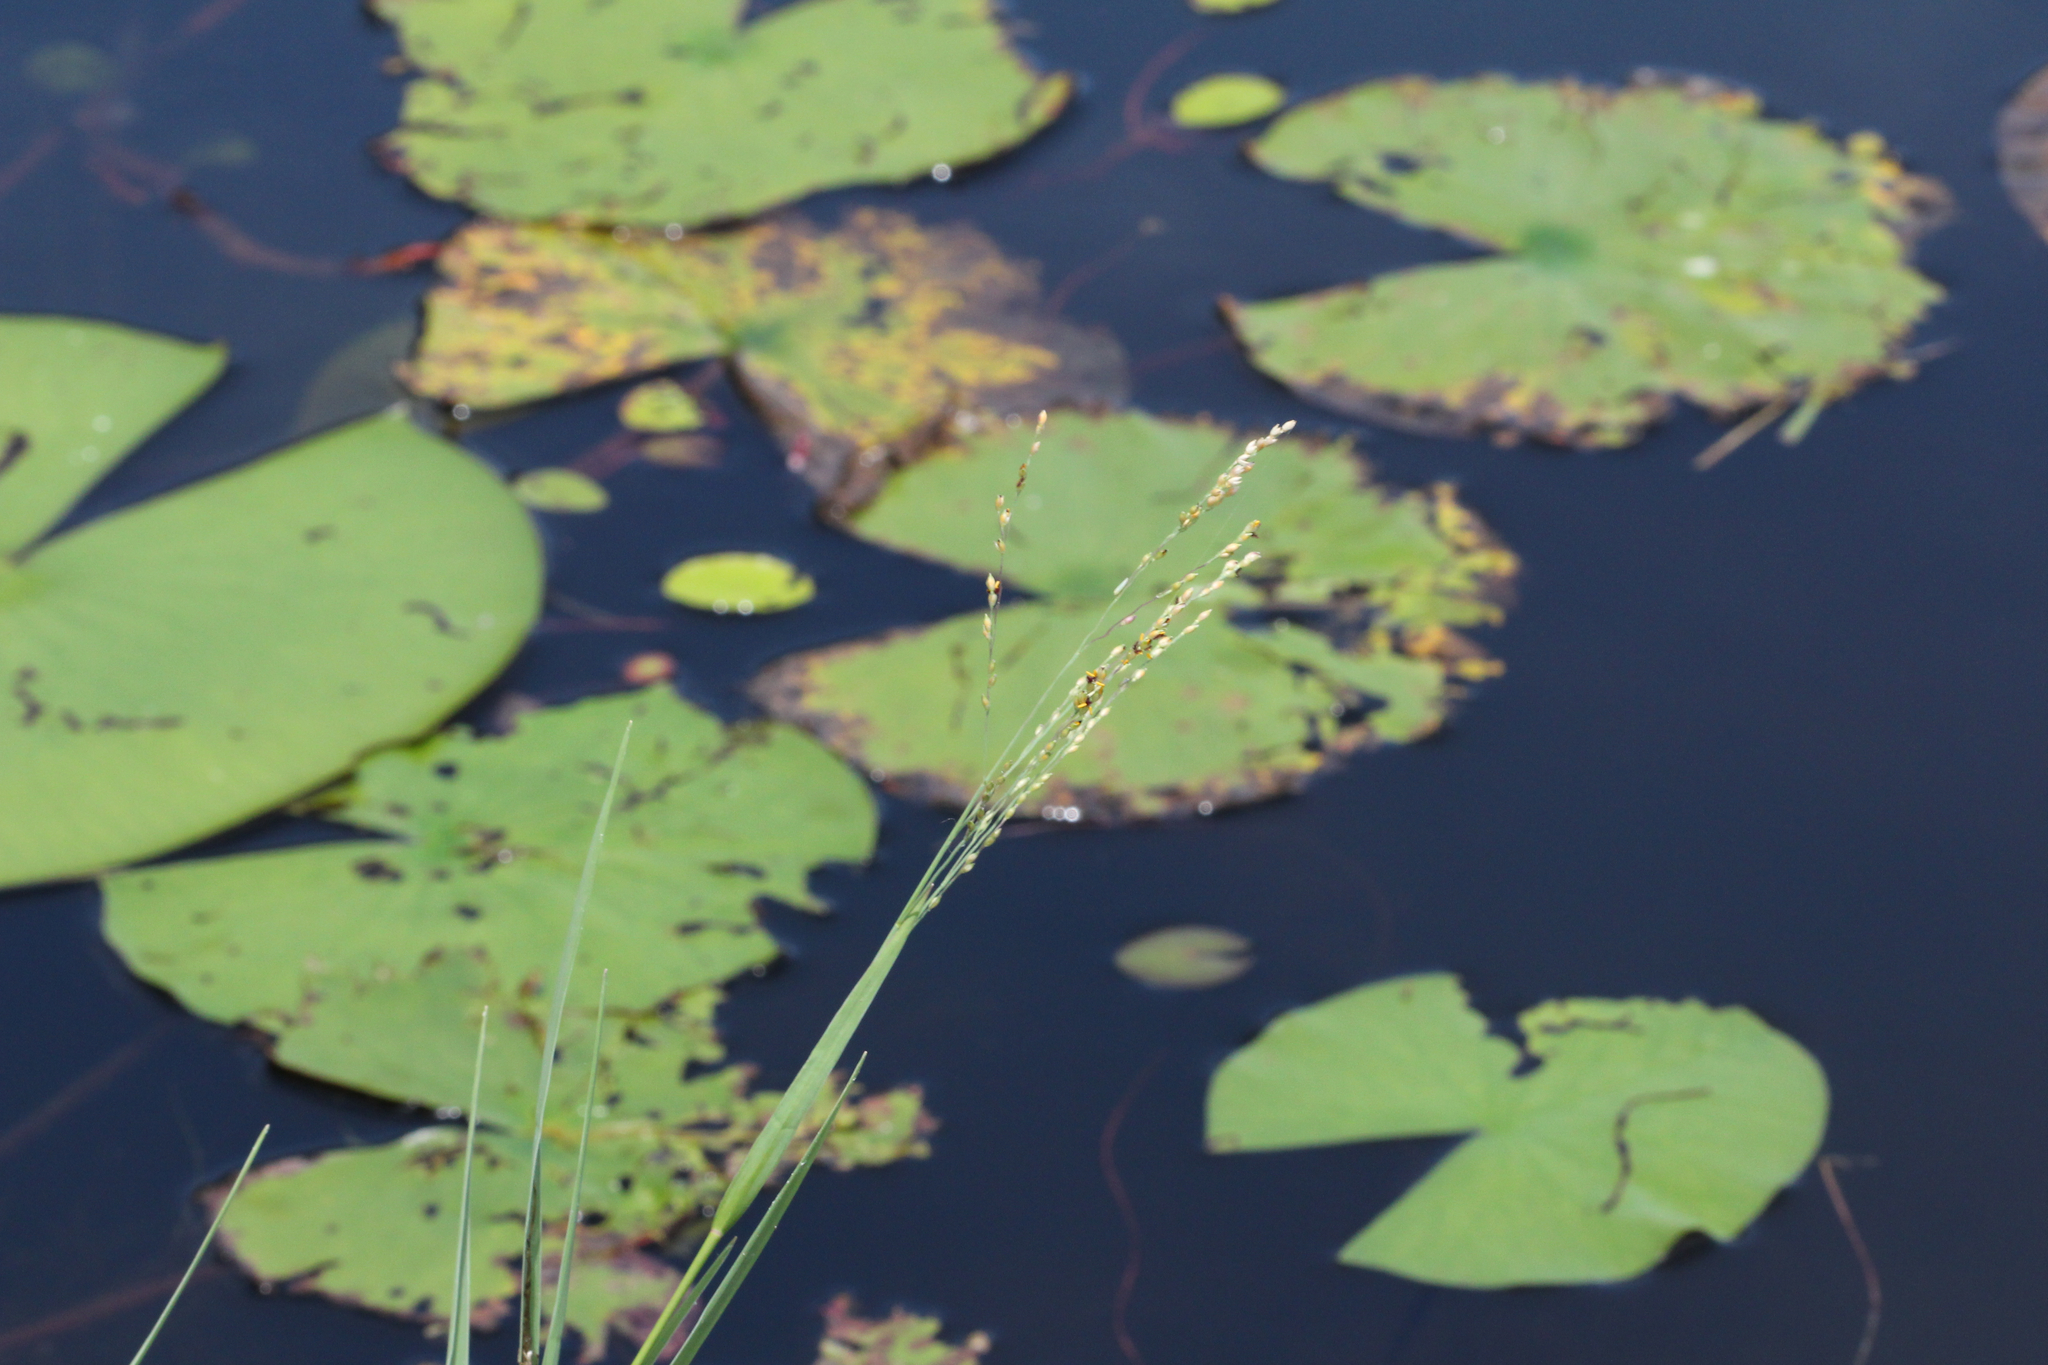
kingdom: Plantae
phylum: Tracheophyta
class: Magnoliopsida
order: Nymphaeales
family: Nymphaeaceae
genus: Nymphaea
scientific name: Nymphaea odorata
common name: Fragrant water-lily
